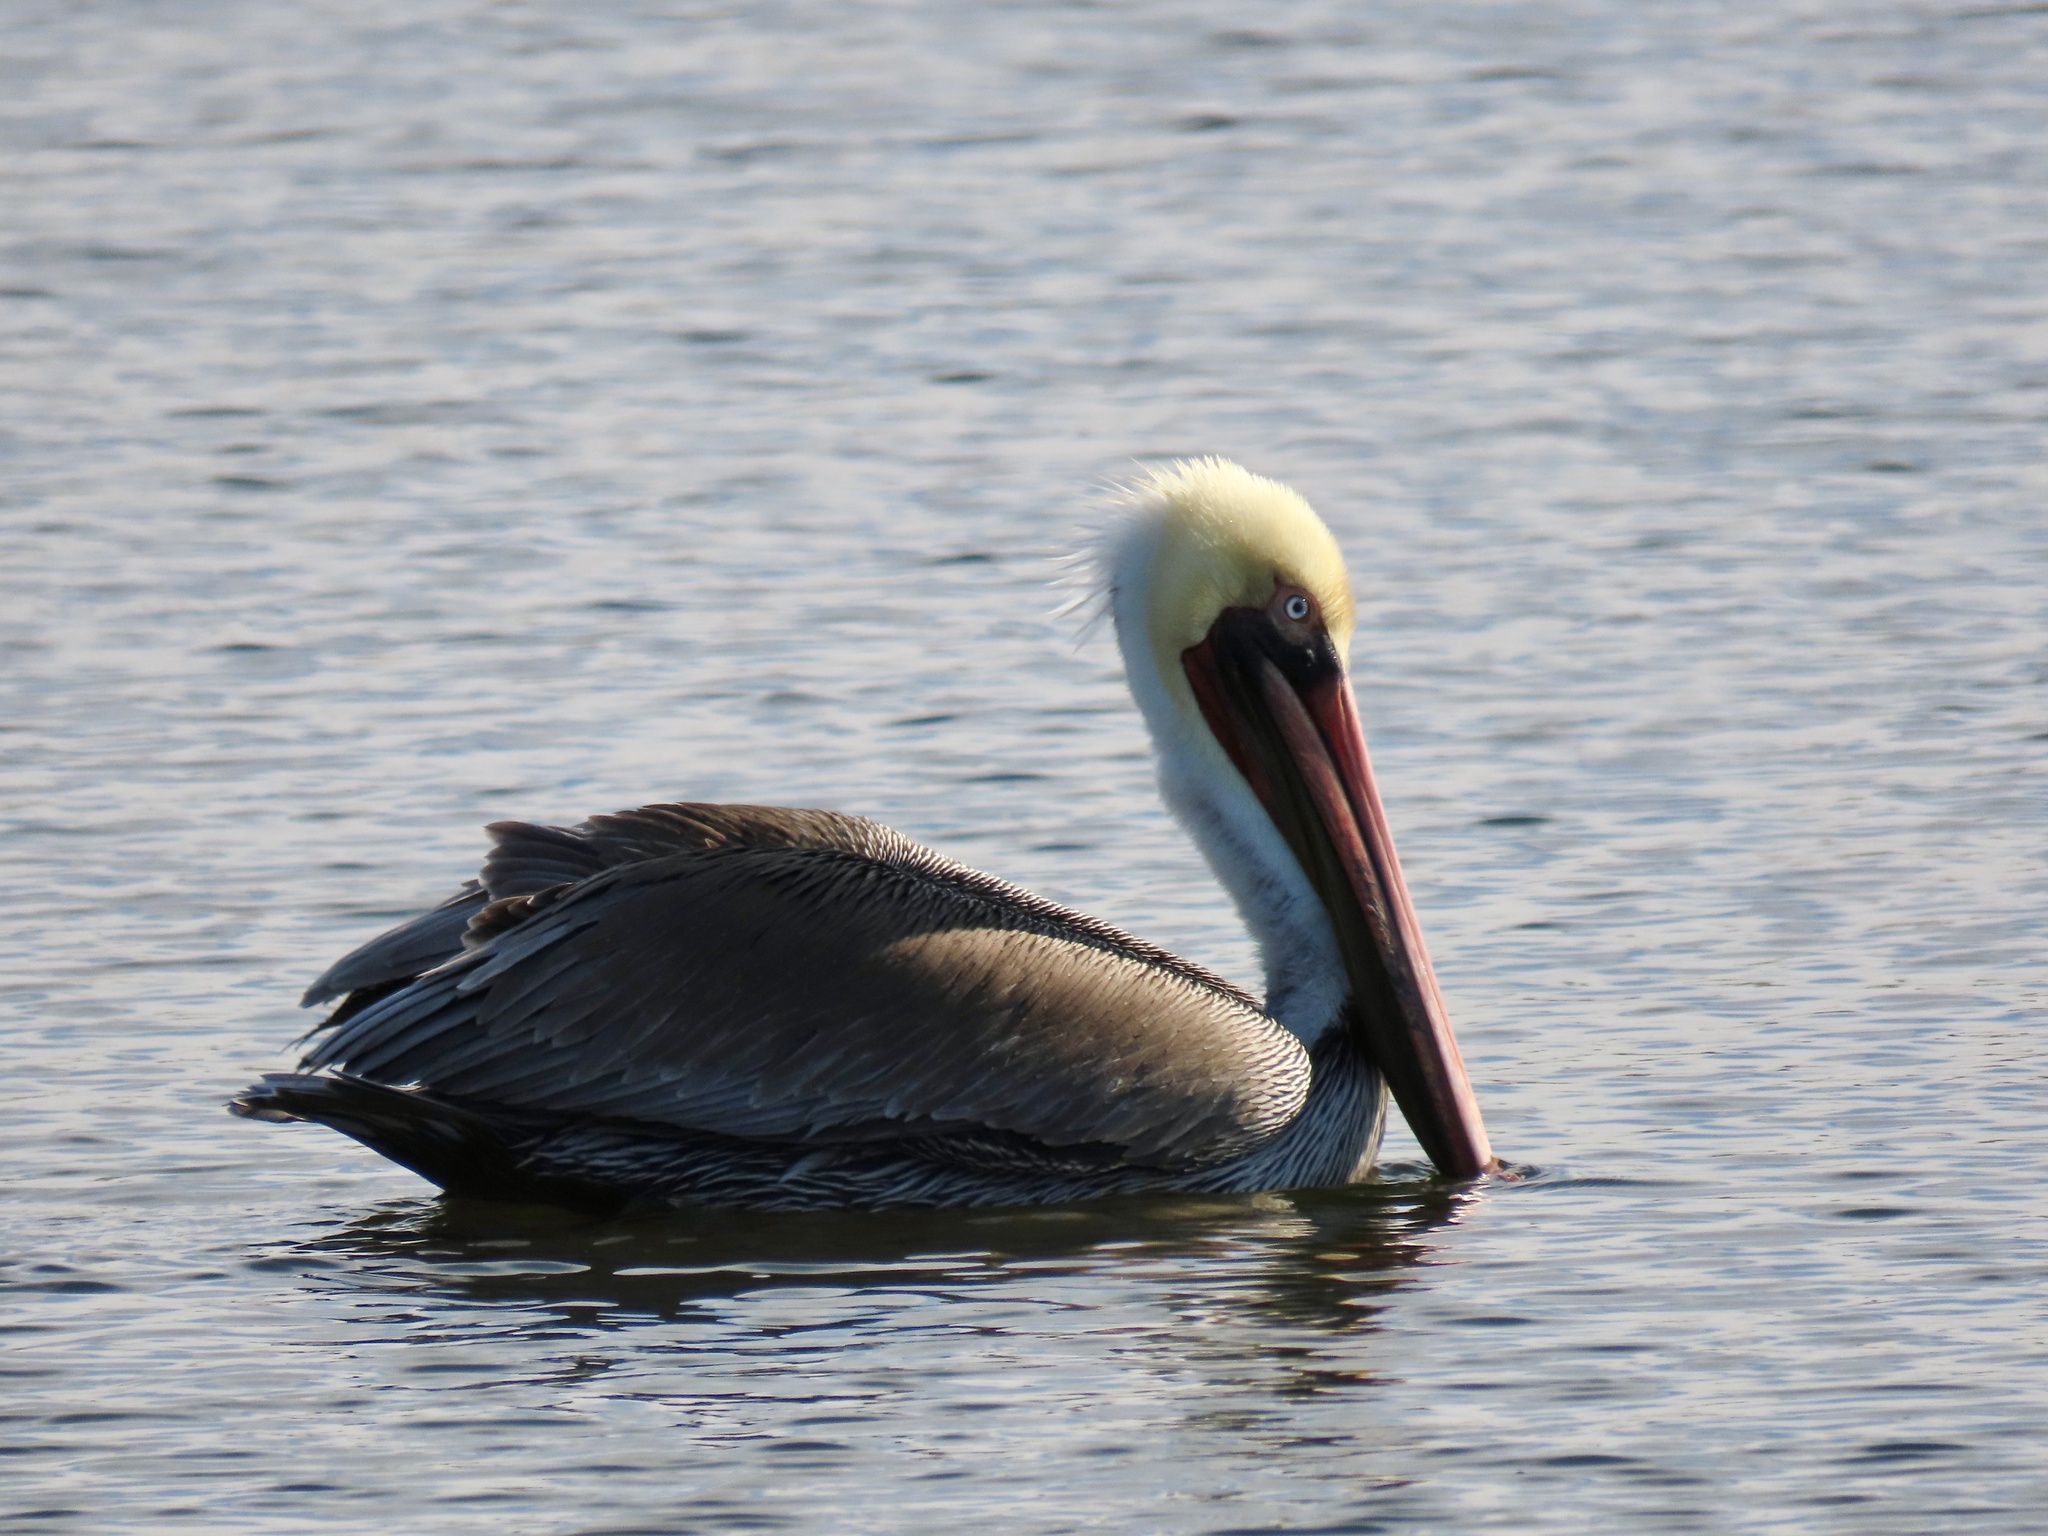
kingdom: Animalia
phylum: Chordata
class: Aves
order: Pelecaniformes
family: Pelecanidae
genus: Pelecanus
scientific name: Pelecanus occidentalis
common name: Brown pelican
